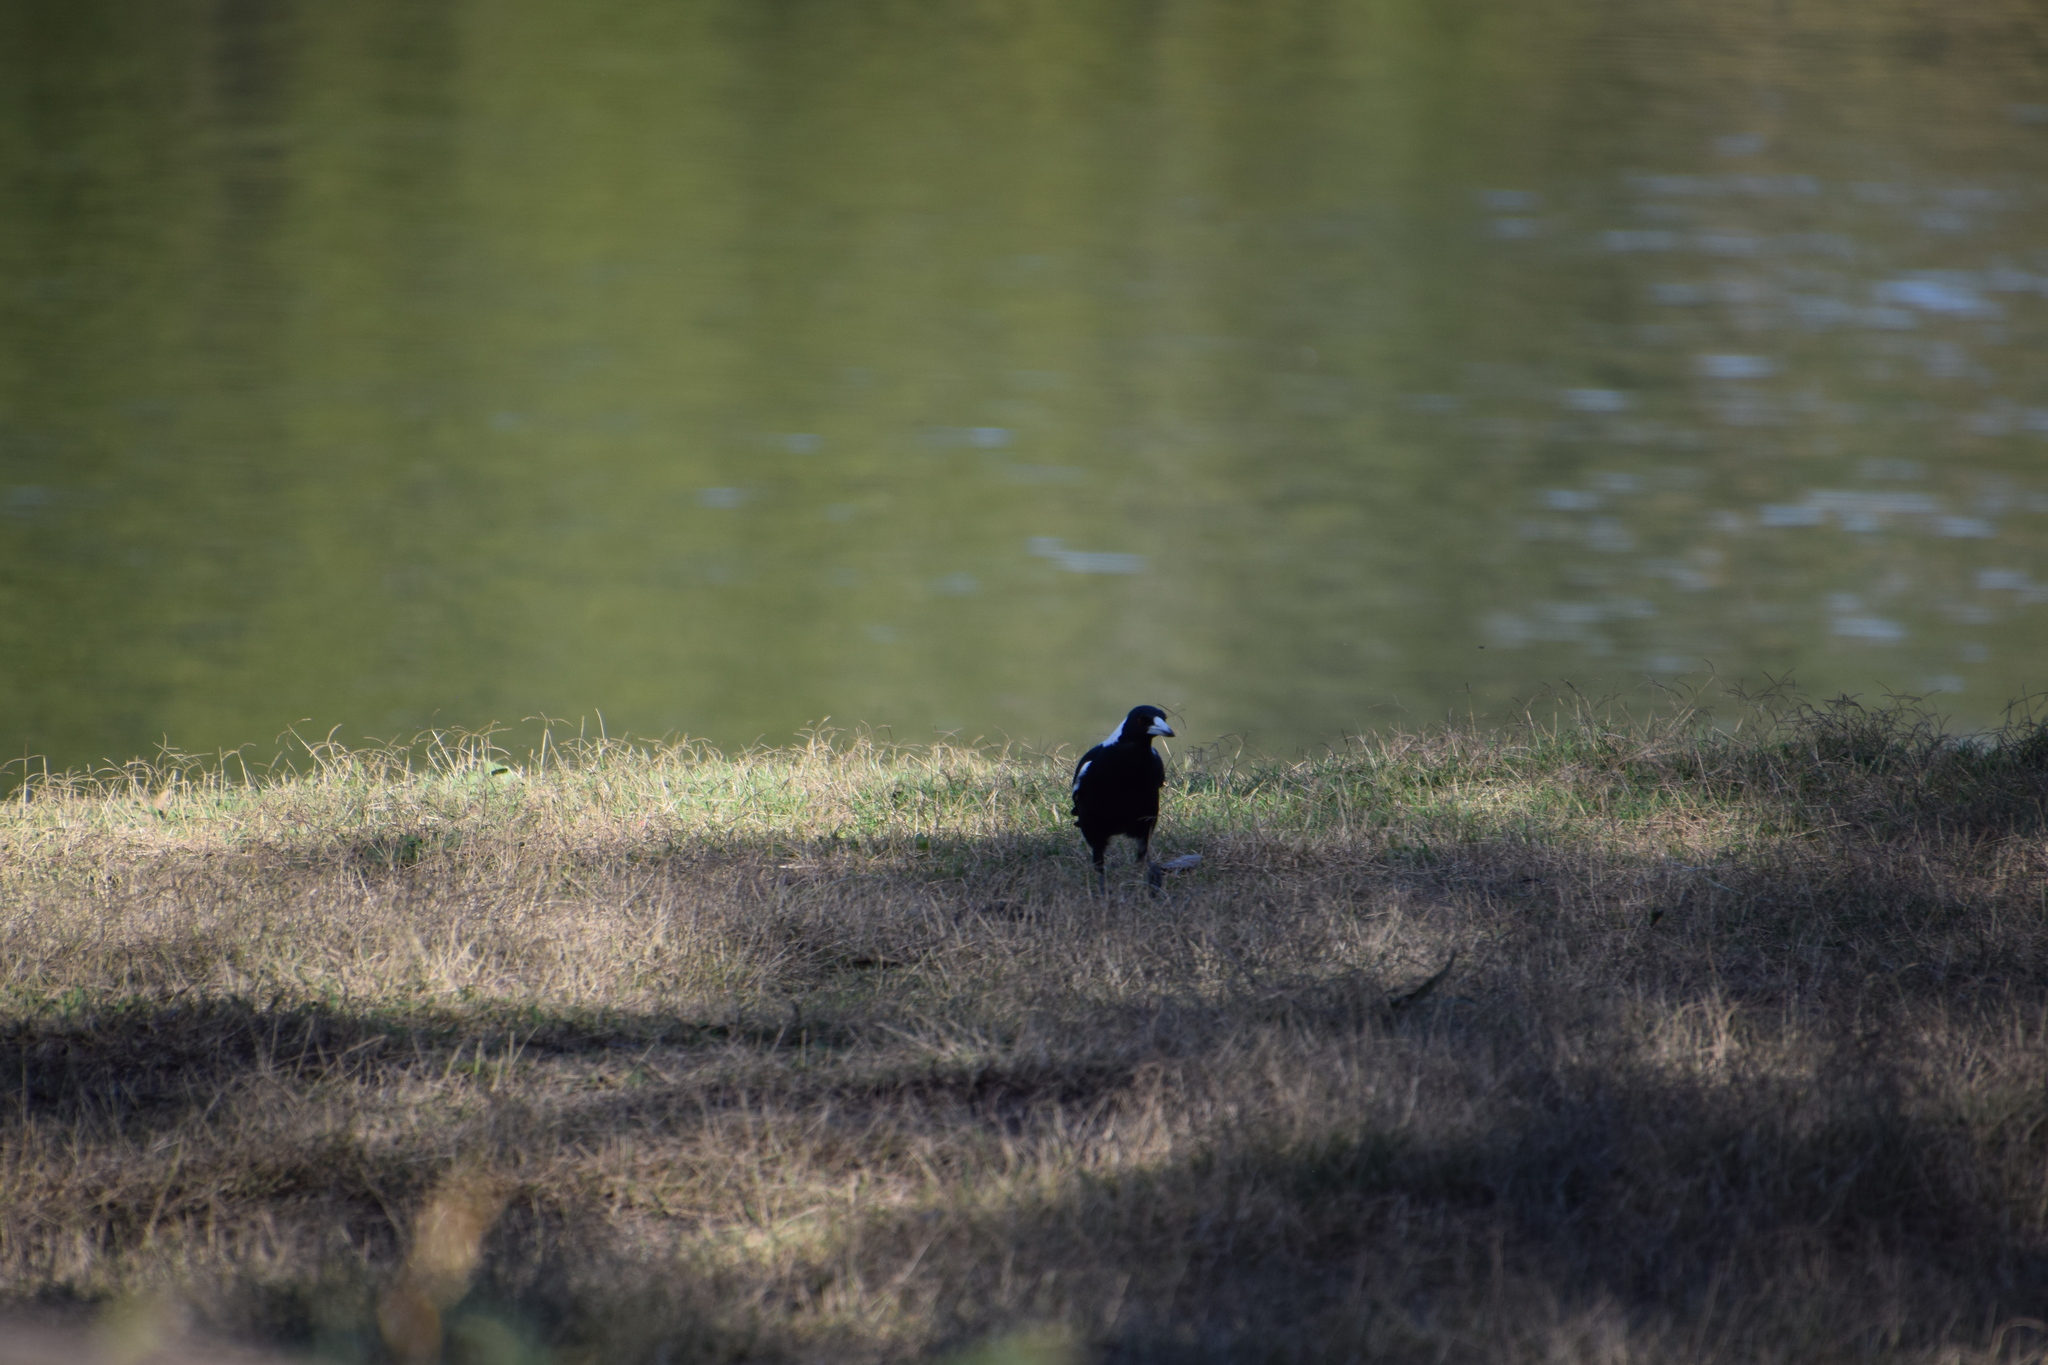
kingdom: Animalia
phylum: Chordata
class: Aves
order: Passeriformes
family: Cracticidae
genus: Gymnorhina
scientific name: Gymnorhina tibicen
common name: Australian magpie
